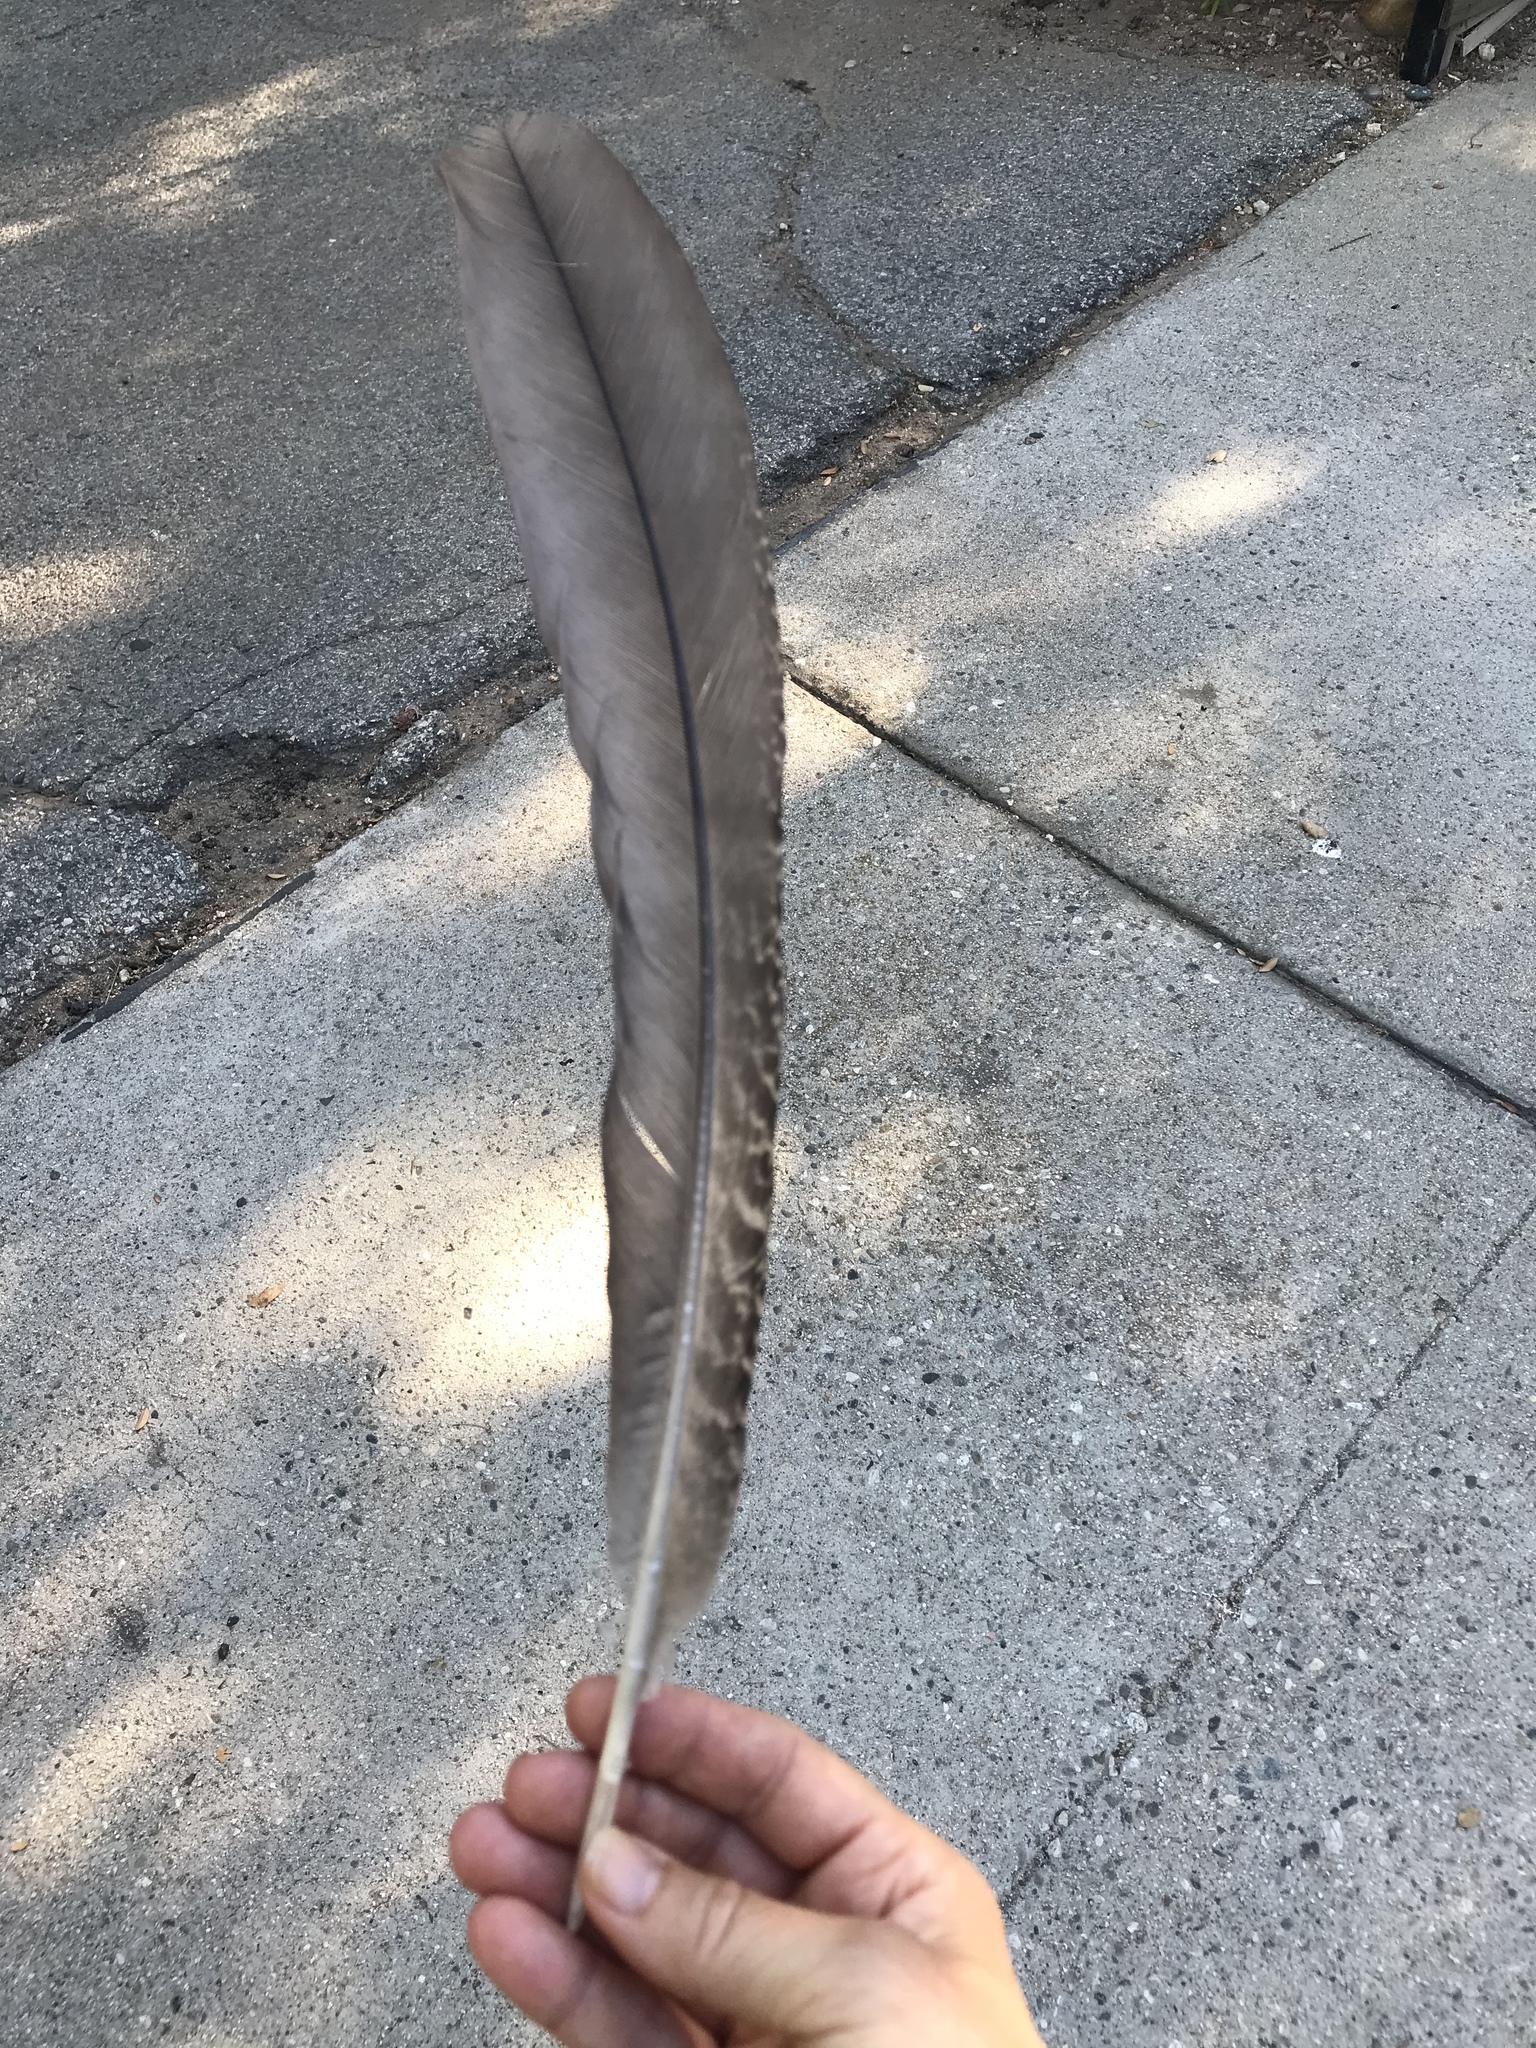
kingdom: Animalia
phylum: Chordata
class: Aves
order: Galliformes
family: Phasianidae
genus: Pavo
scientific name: Pavo cristatus
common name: Indian peafowl
